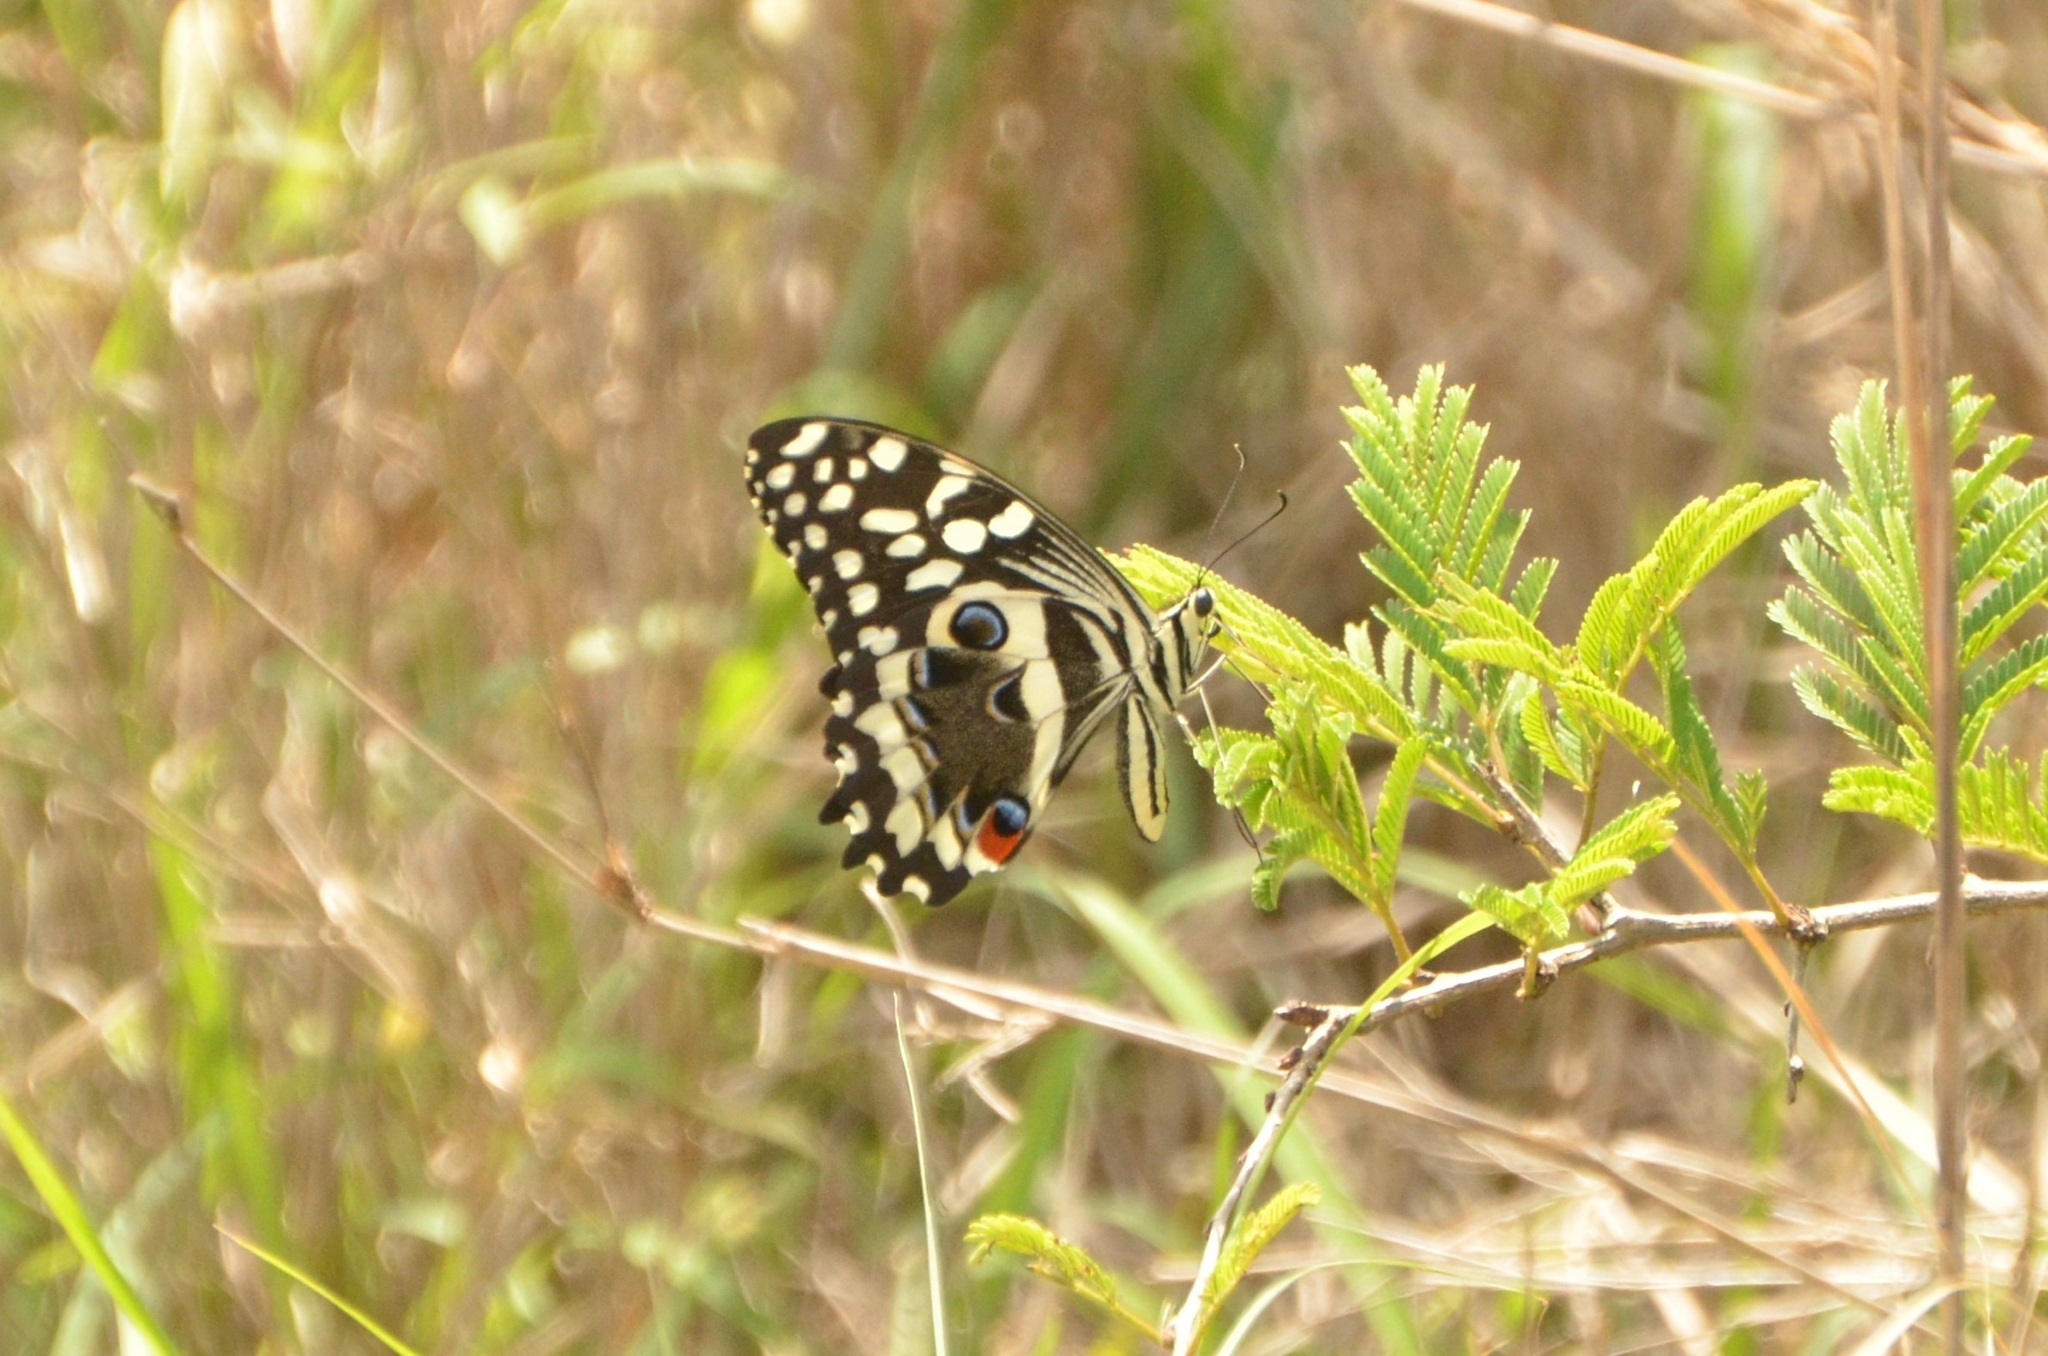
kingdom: Animalia
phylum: Arthropoda
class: Insecta
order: Lepidoptera
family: Papilionidae
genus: Papilio
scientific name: Papilio demodocus
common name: Christmas butterfly
